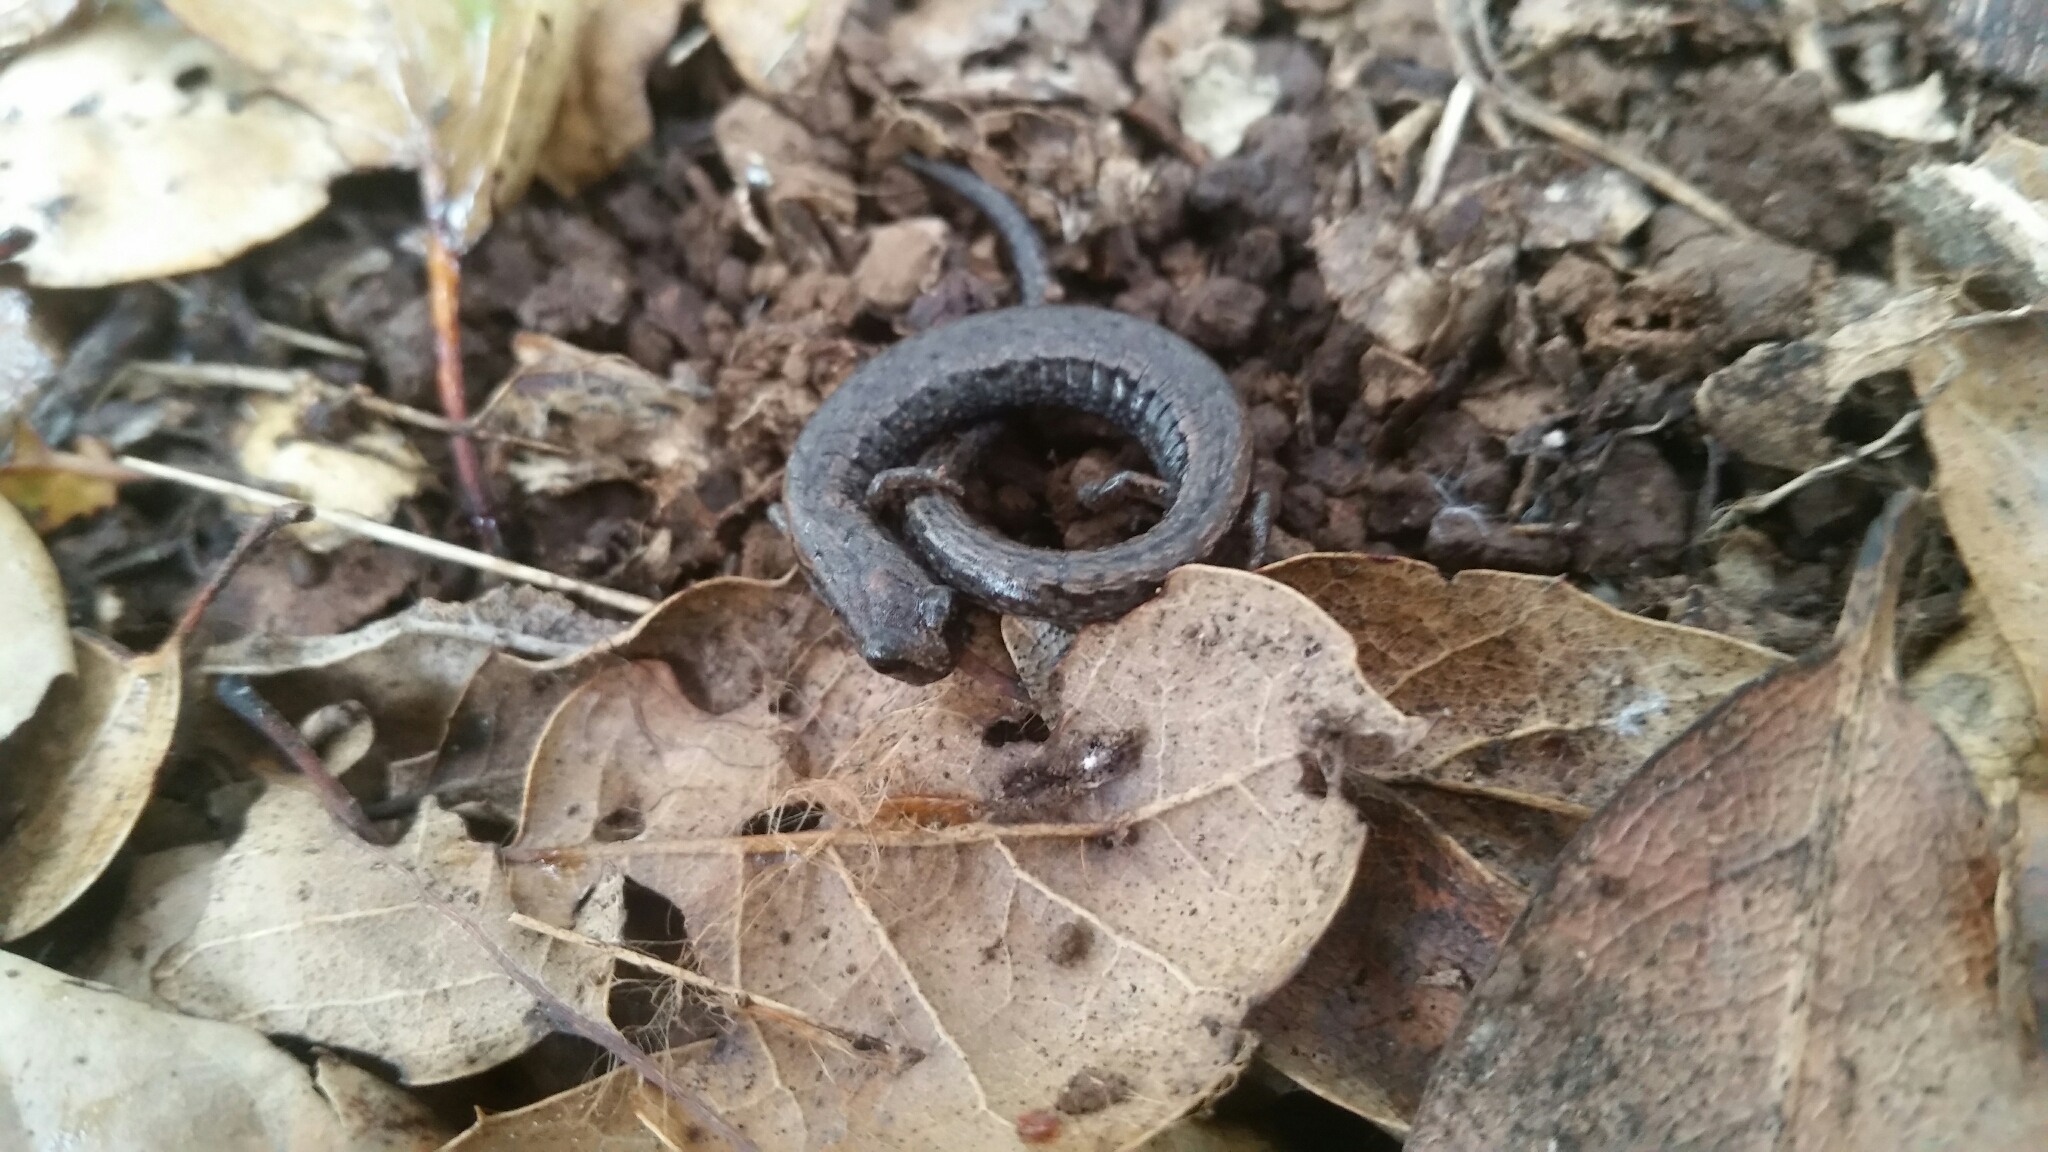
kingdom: Animalia
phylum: Chordata
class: Amphibia
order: Caudata
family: Plethodontidae
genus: Batrachoseps
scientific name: Batrachoseps attenuatus
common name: California slender salamander
